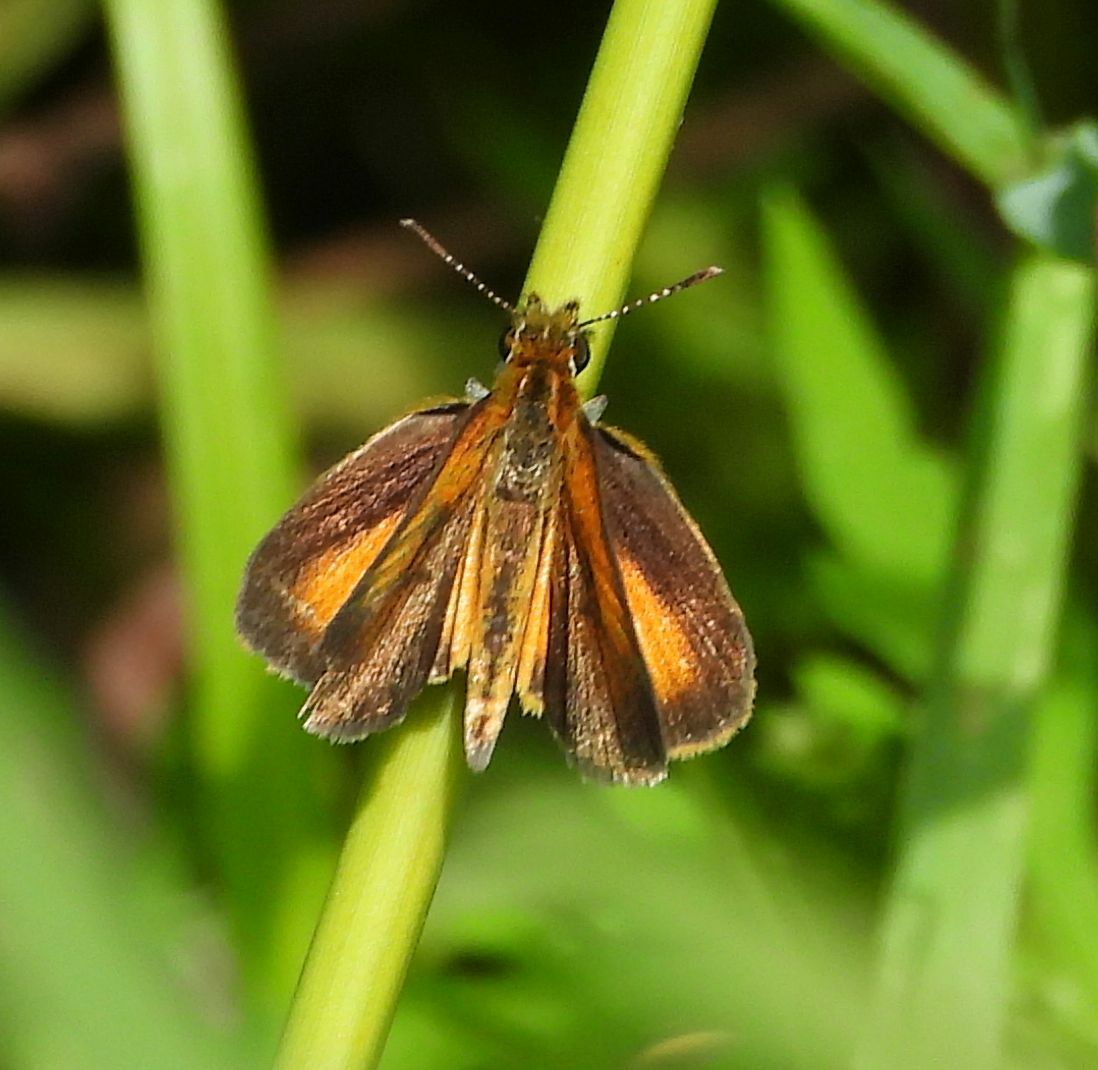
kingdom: Animalia
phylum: Arthropoda
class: Insecta
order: Lepidoptera
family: Hesperiidae
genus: Ancyloxypha
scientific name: Ancyloxypha numitor
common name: Least skipper
